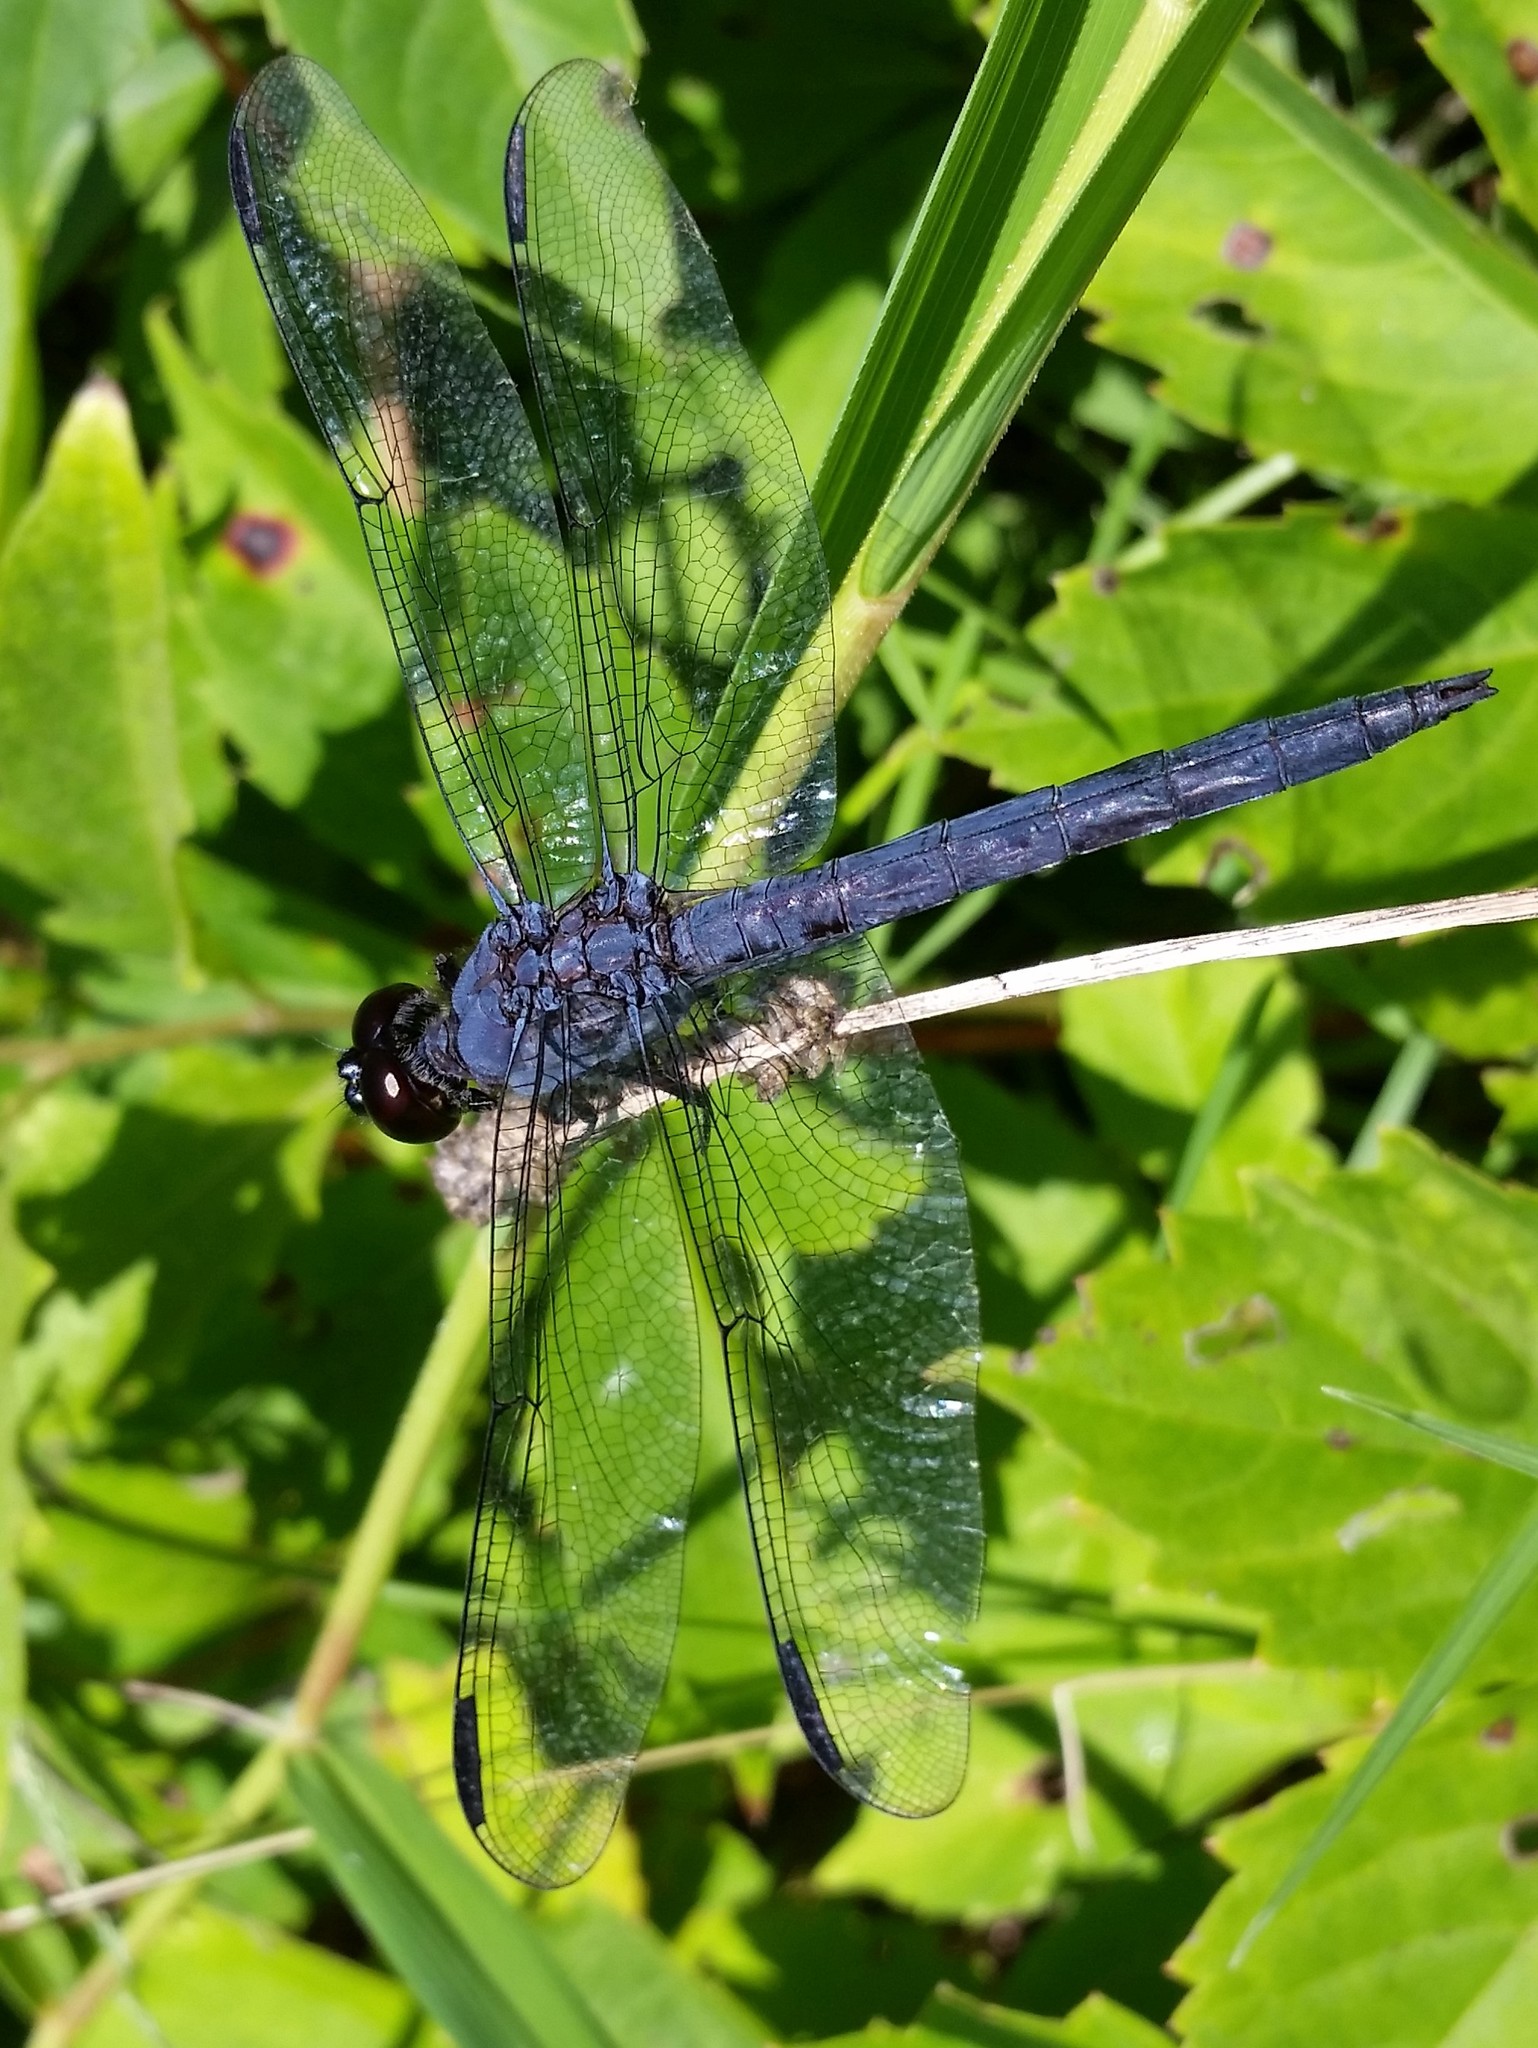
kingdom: Animalia
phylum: Arthropoda
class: Insecta
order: Odonata
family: Libellulidae
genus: Libellula
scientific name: Libellula incesta
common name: Slaty skimmer
